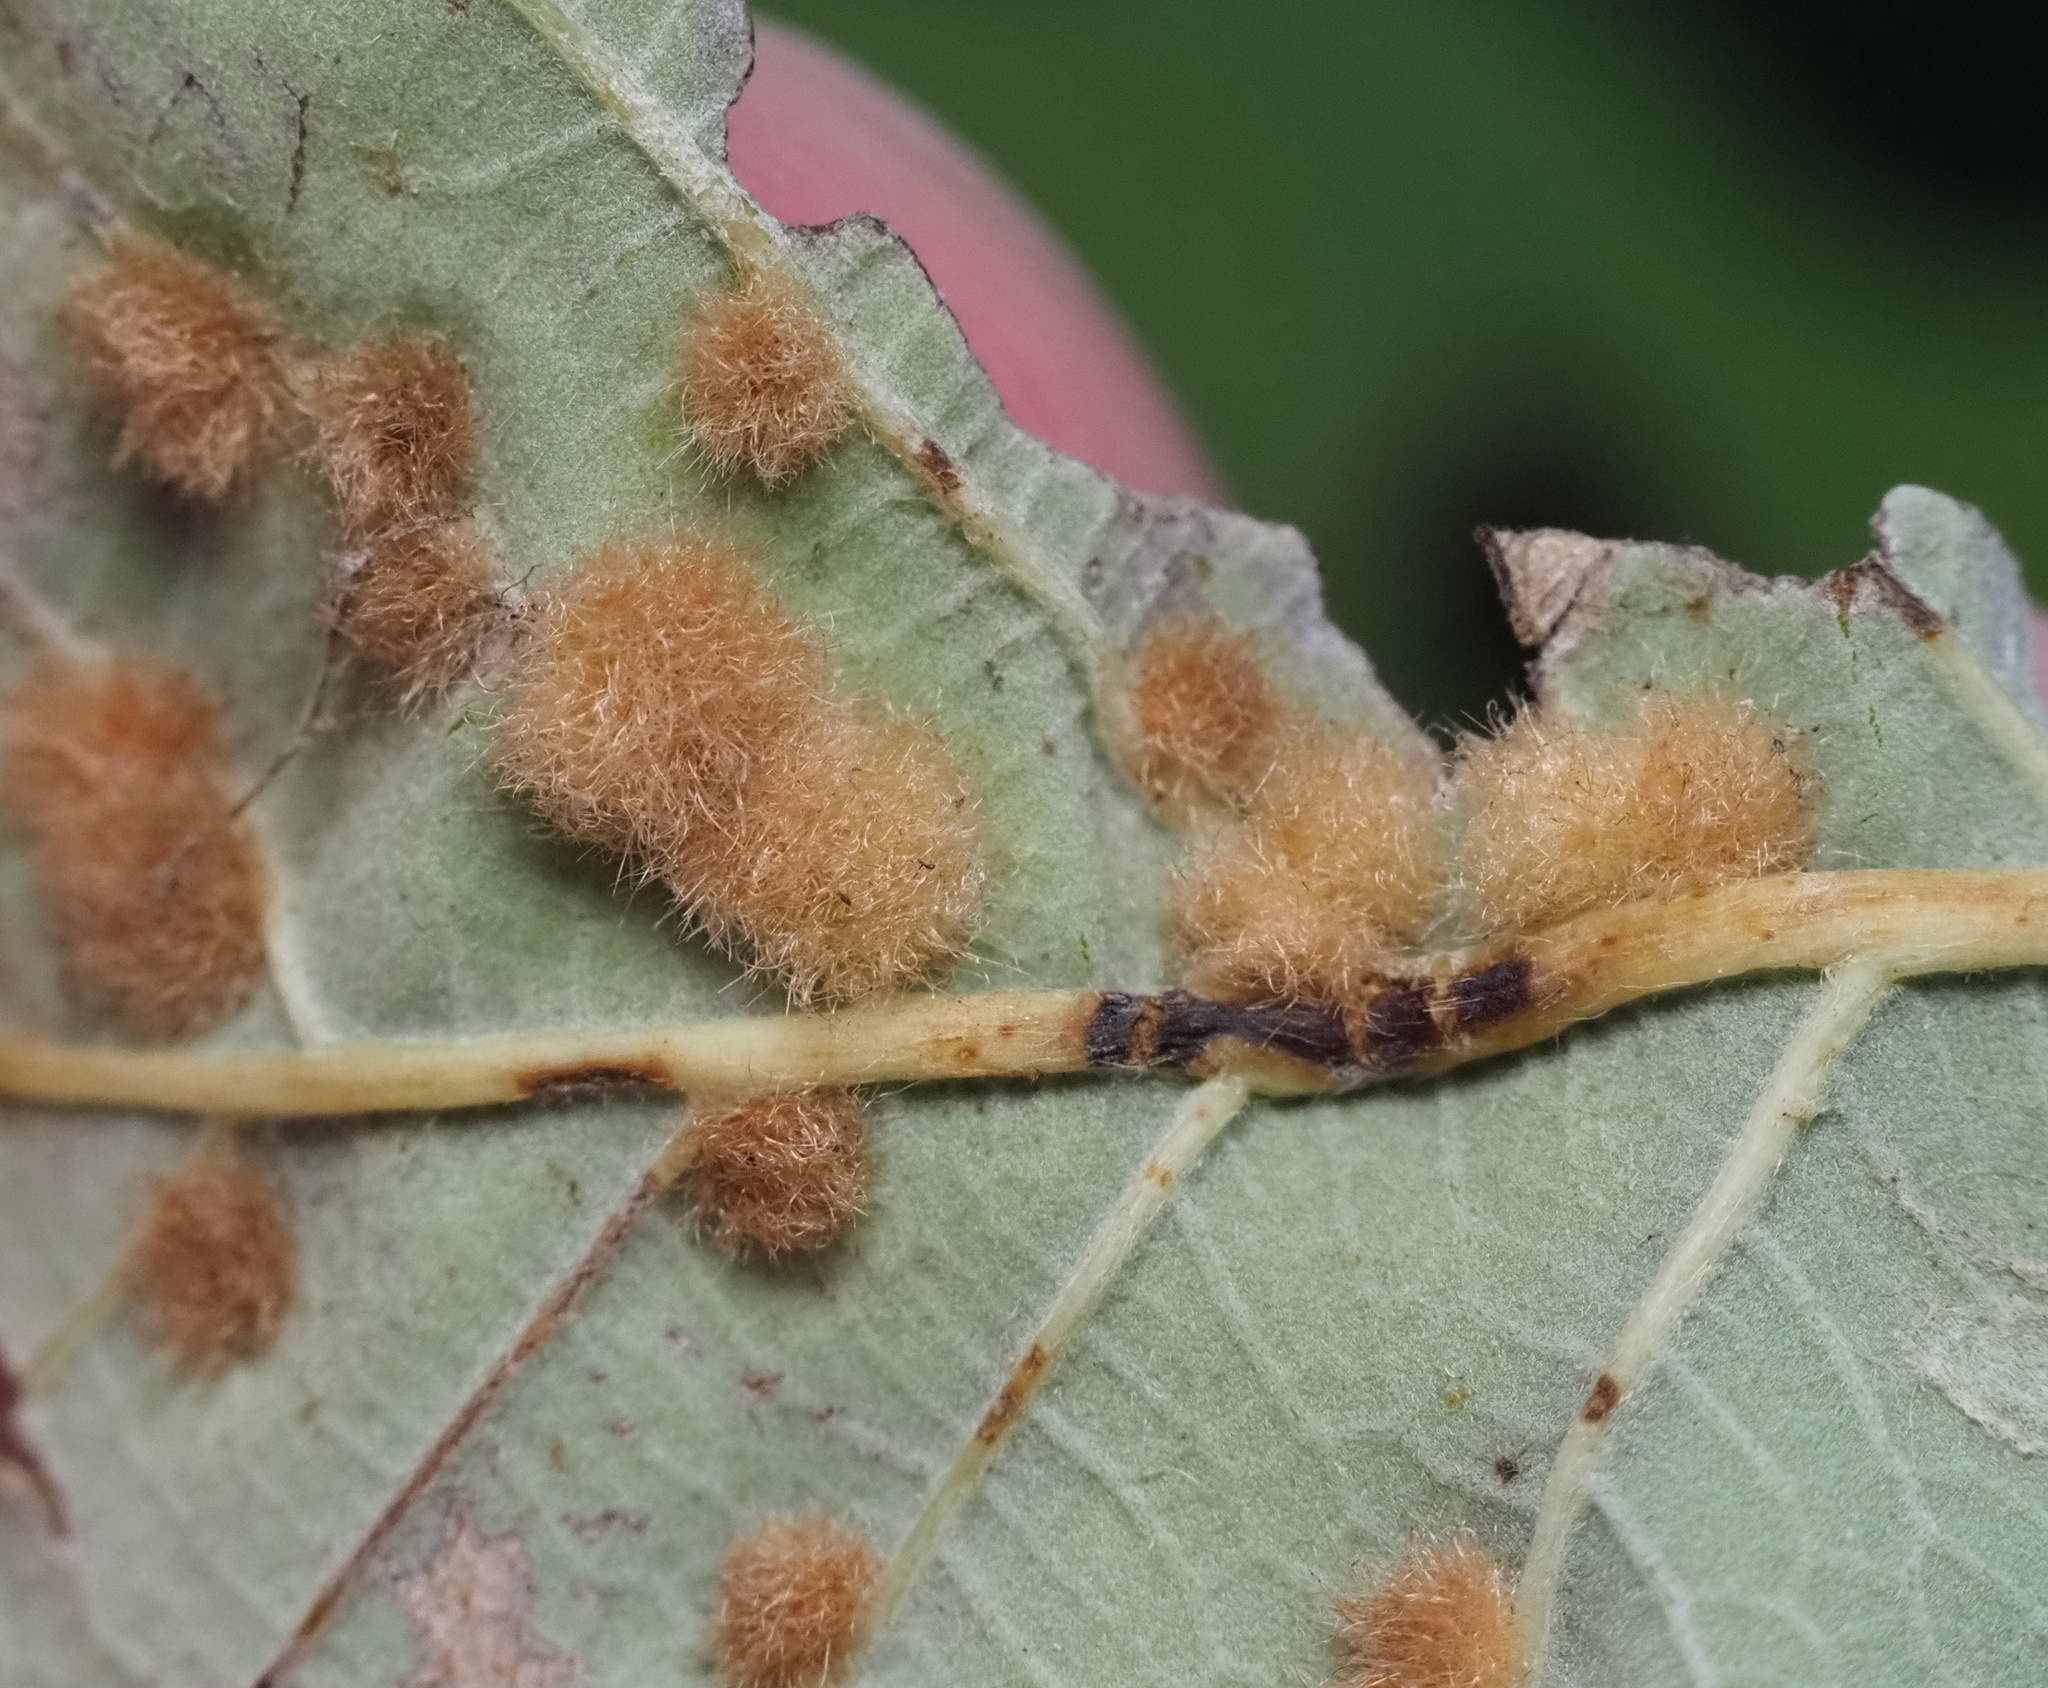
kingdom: Animalia
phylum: Arthropoda
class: Insecta
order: Hymenoptera
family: Cynipidae
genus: Neuroterus
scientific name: Neuroterus quercusverrucarum
